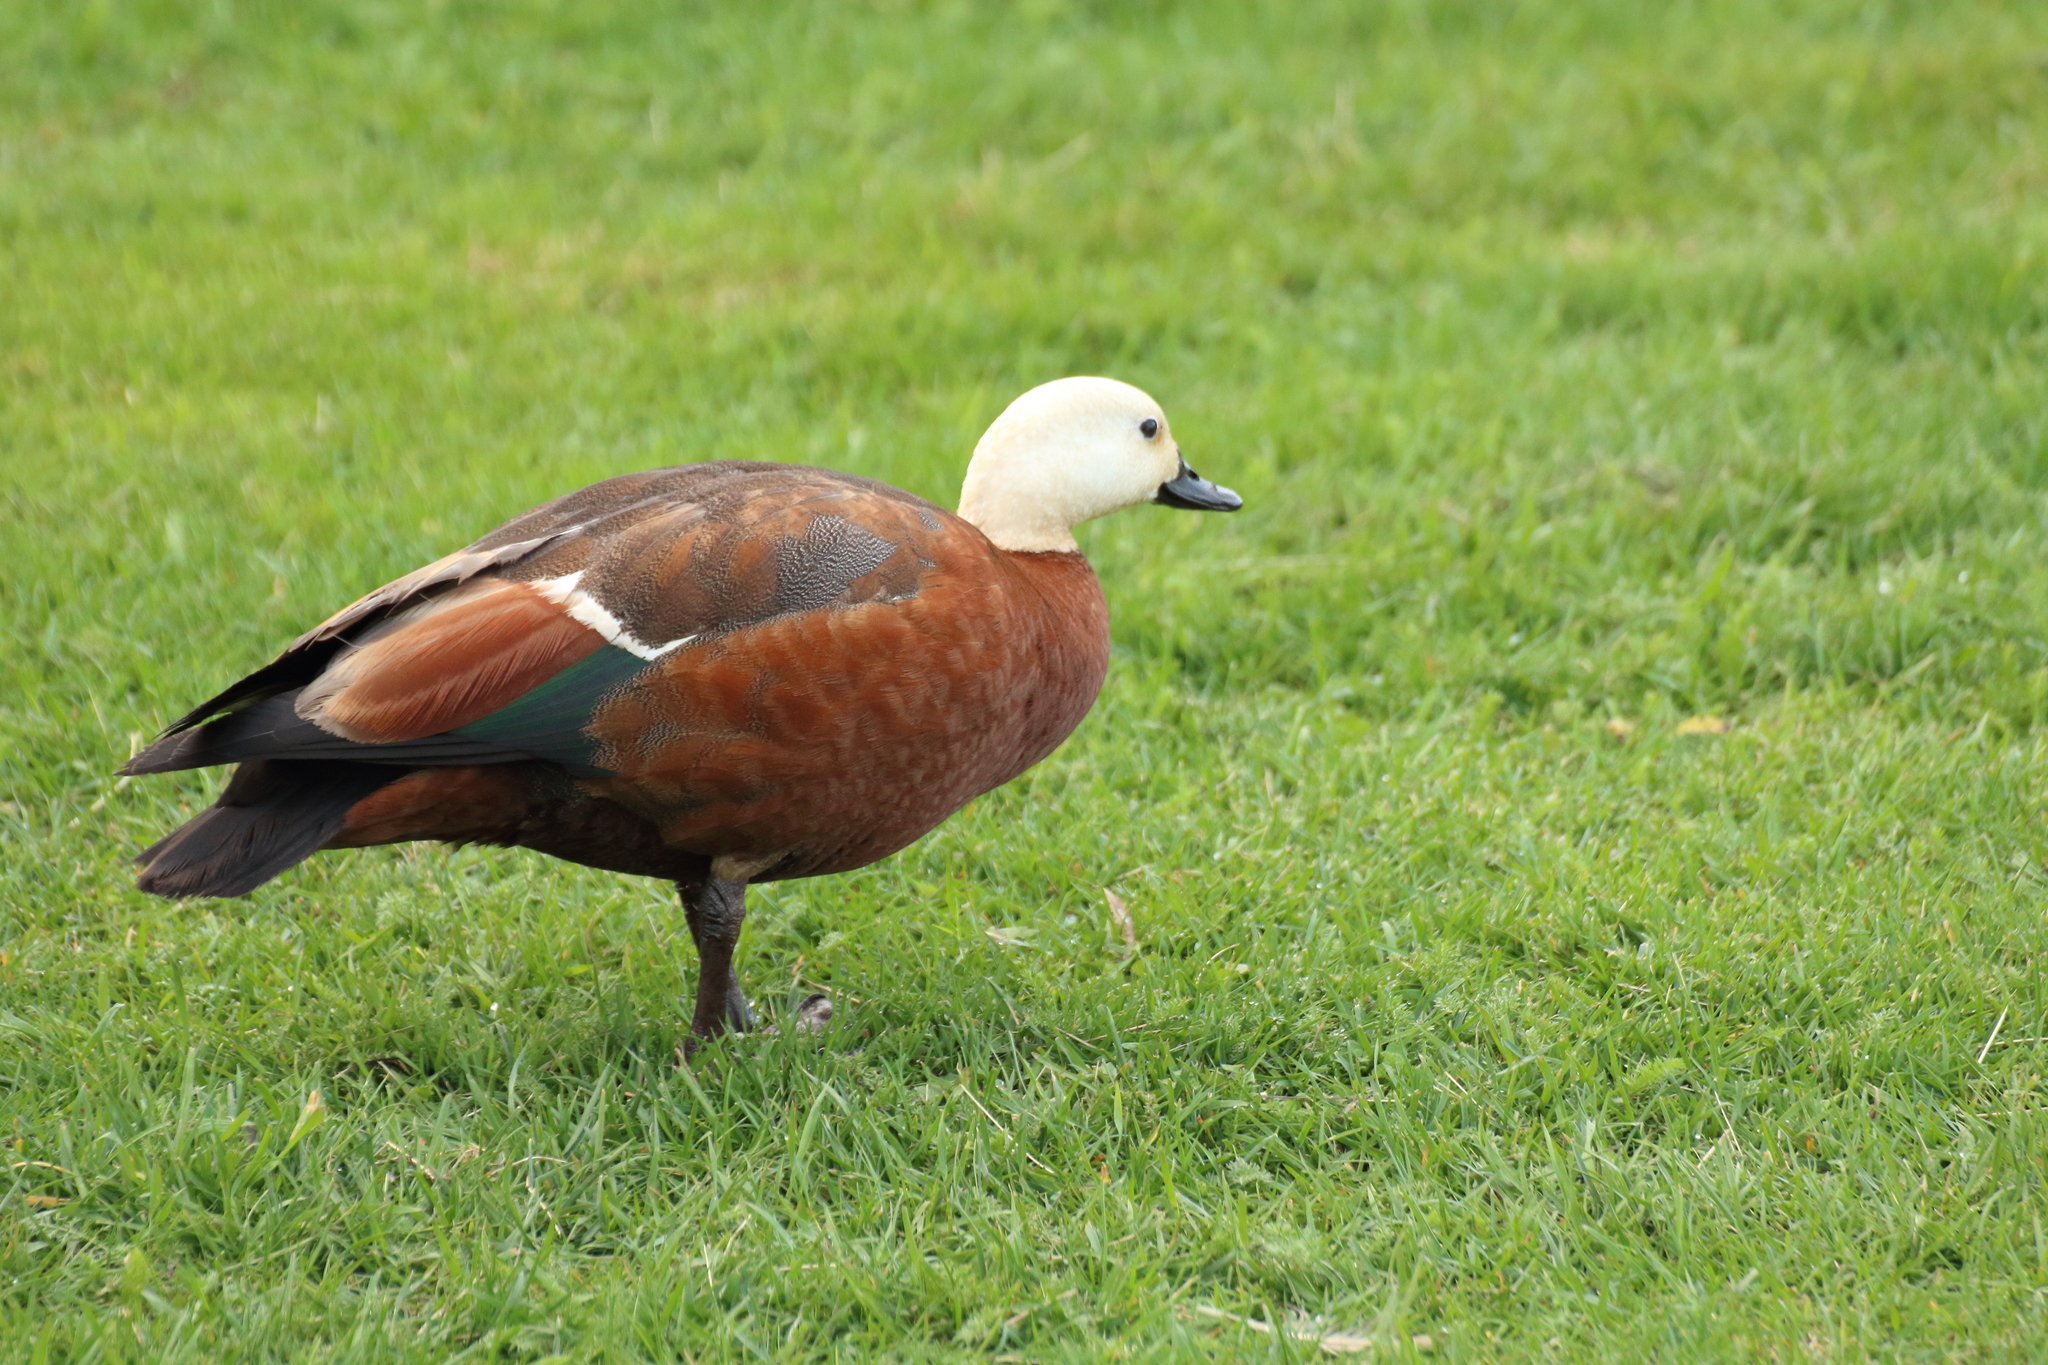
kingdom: Animalia
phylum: Chordata
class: Aves
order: Anseriformes
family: Anatidae
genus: Tadorna
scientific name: Tadorna variegata
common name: Paradise shelduck
